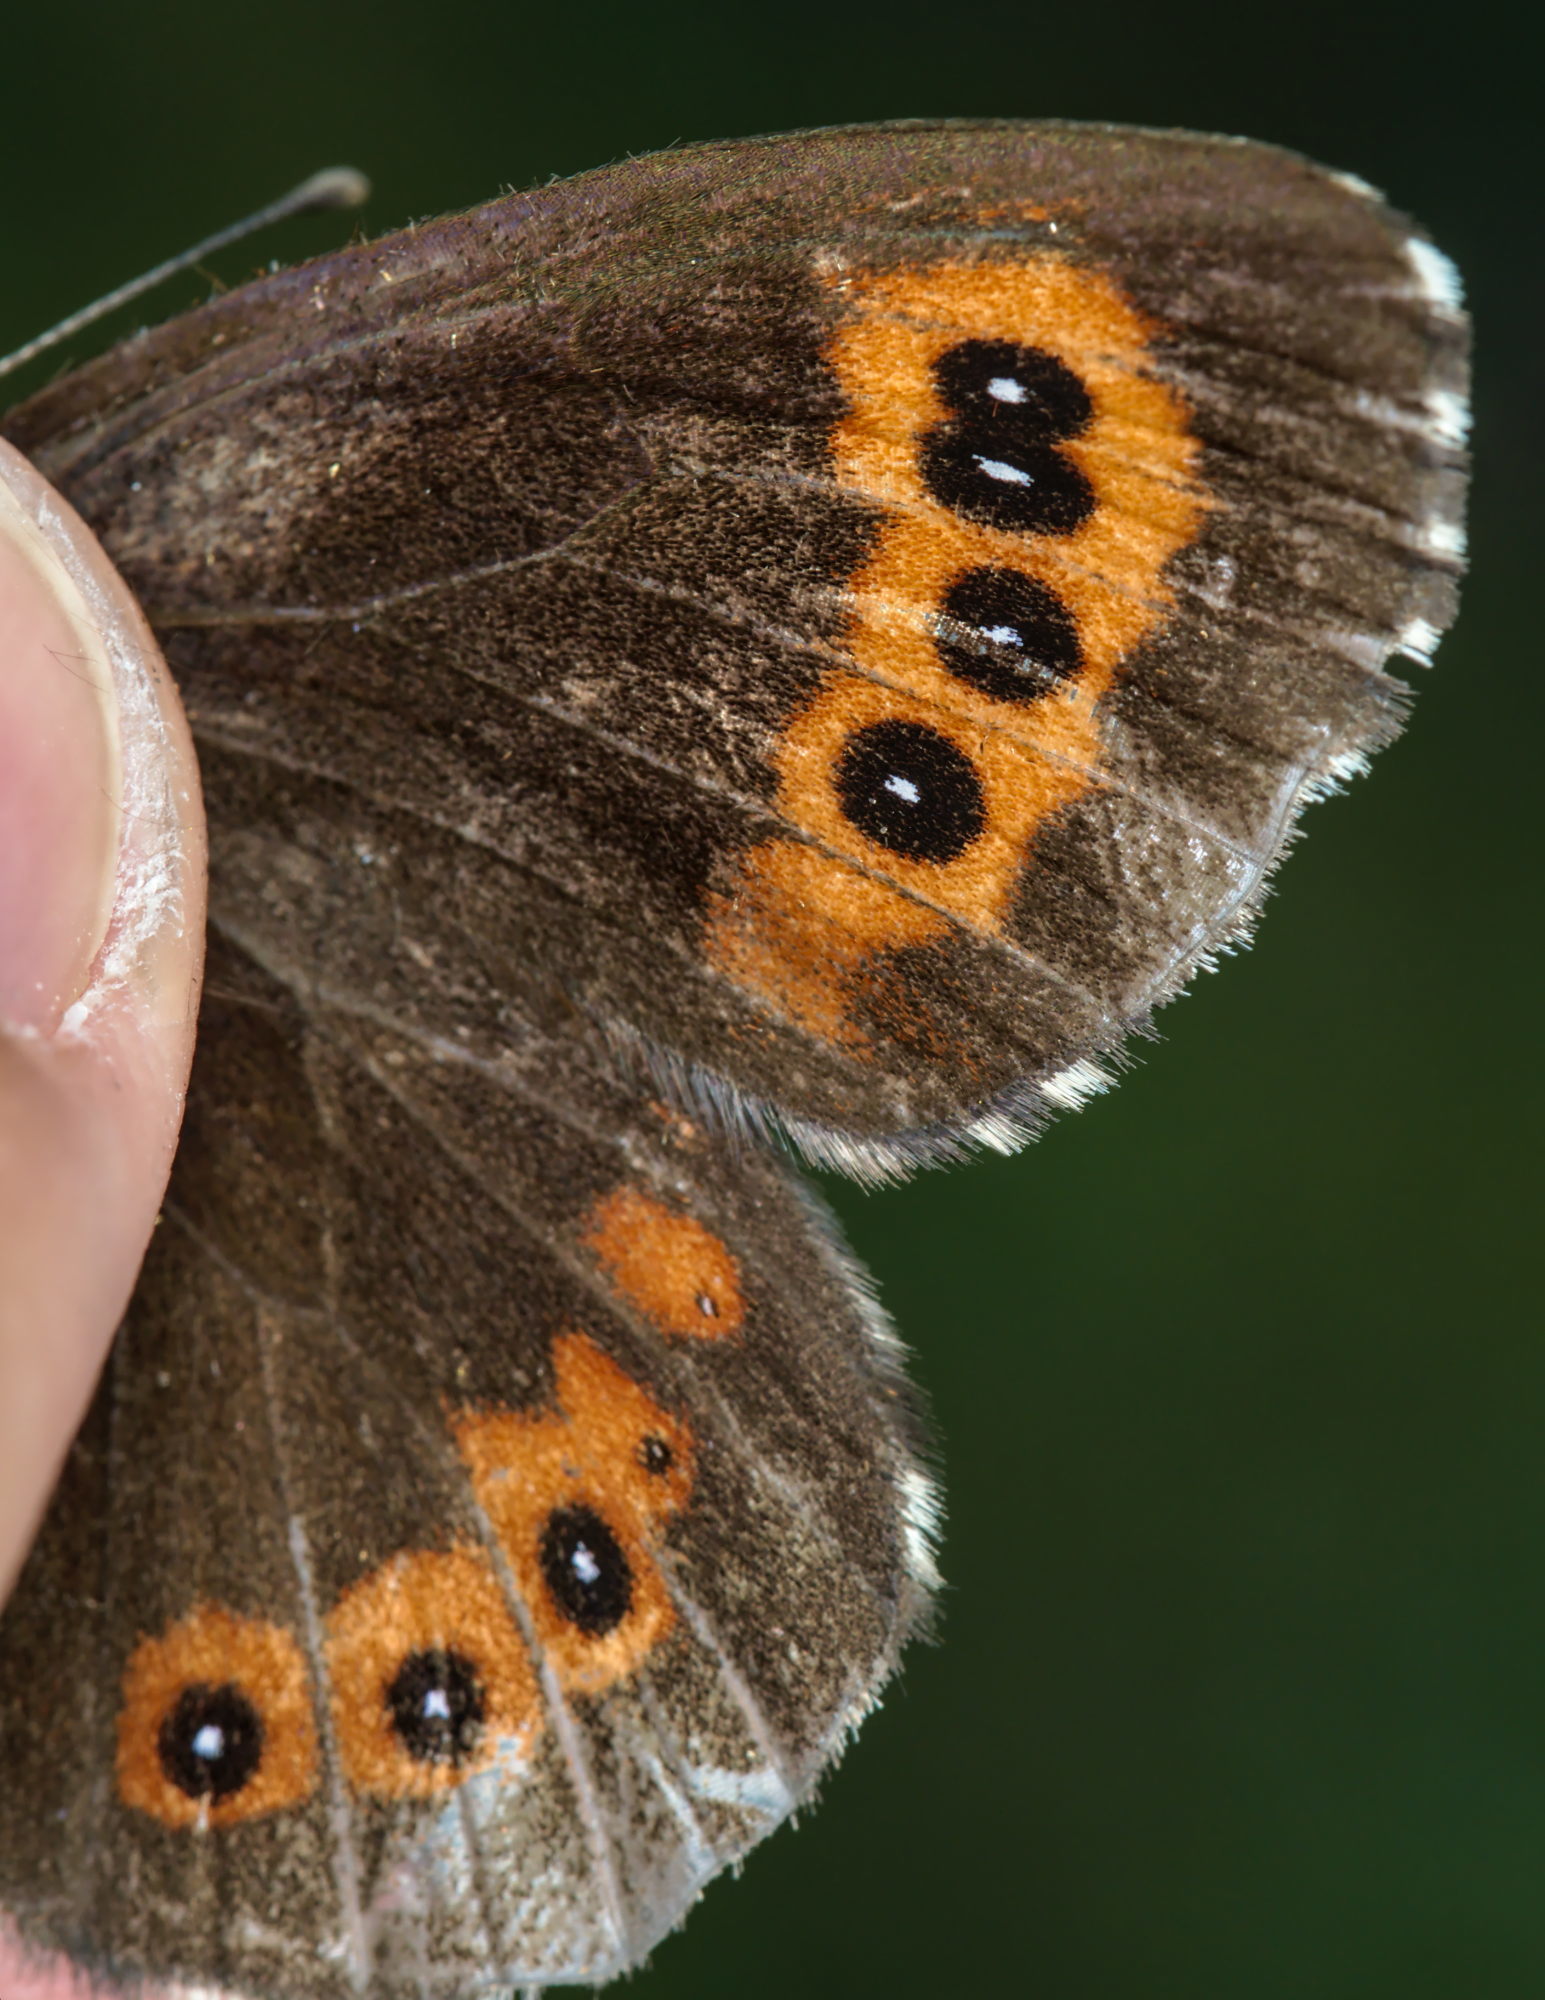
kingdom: Animalia
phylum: Arthropoda
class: Insecta
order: Lepidoptera
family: Nymphalidae
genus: Erebia
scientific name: Erebia ligea
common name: Arran brown
